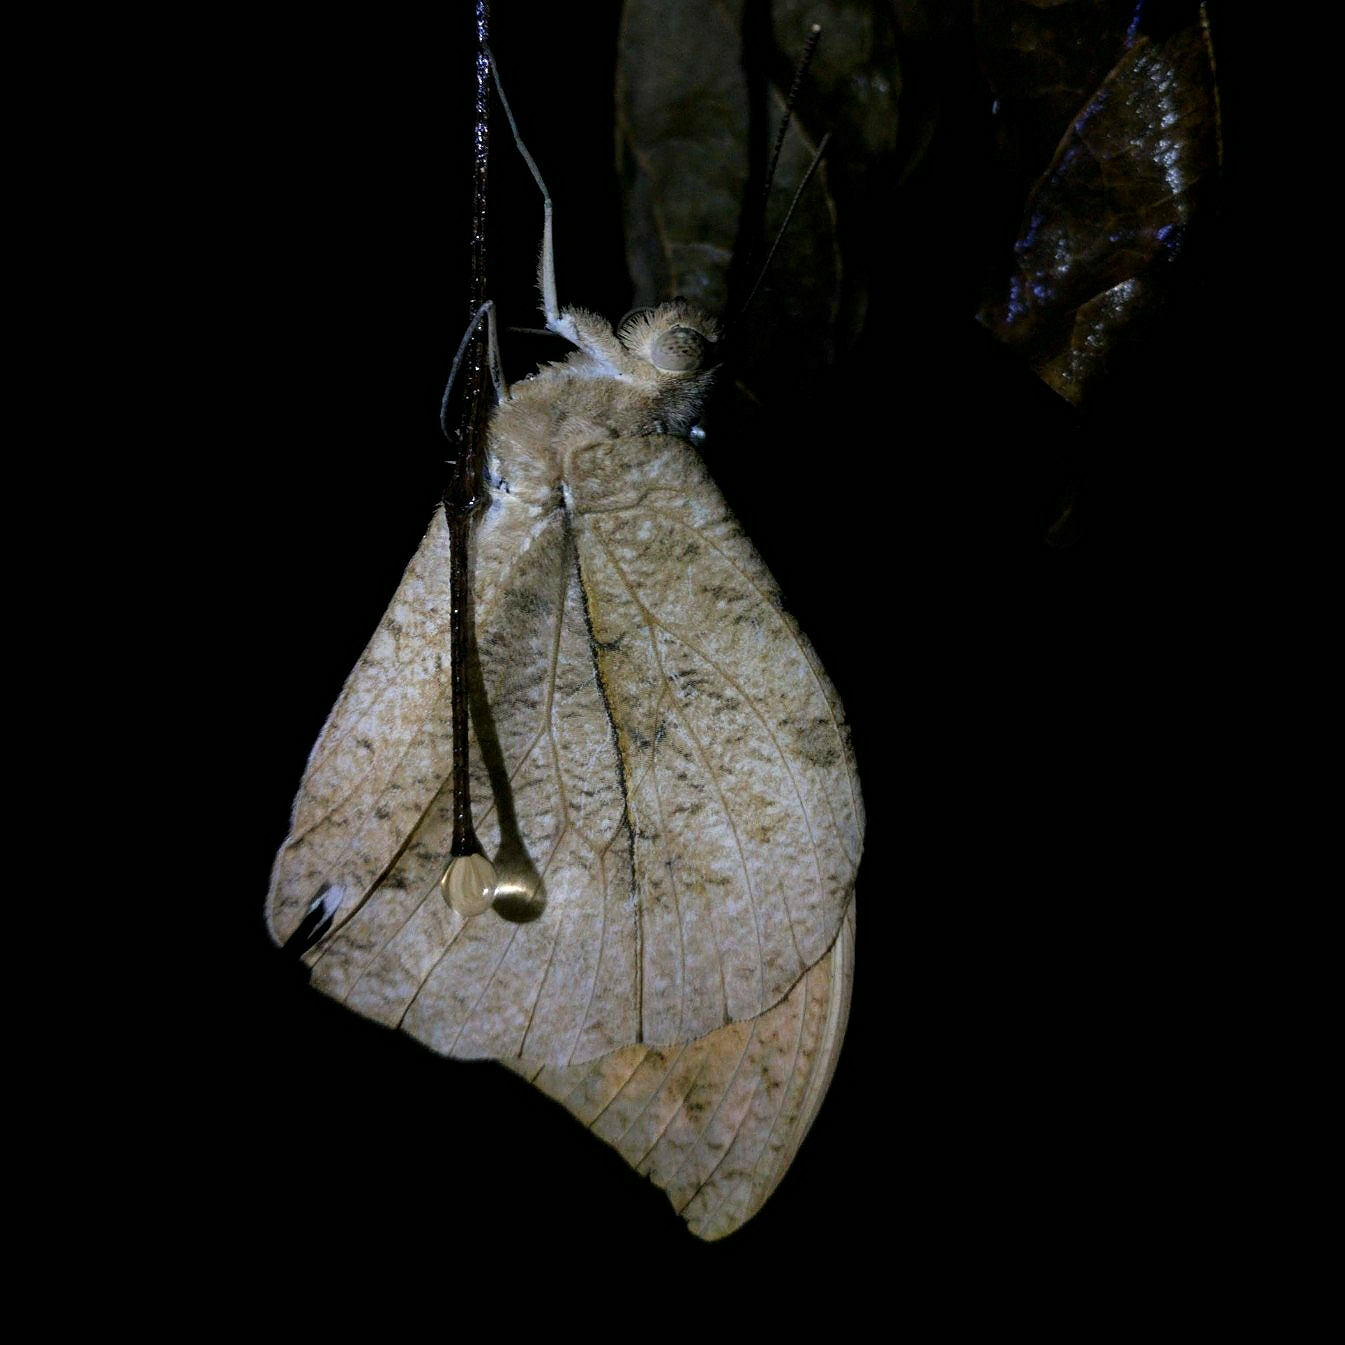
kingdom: Animalia
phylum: Arthropoda
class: Insecta
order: Lepidoptera
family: Pieridae
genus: Hebomoia
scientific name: Hebomoia glaucippe
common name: Great orange tip
